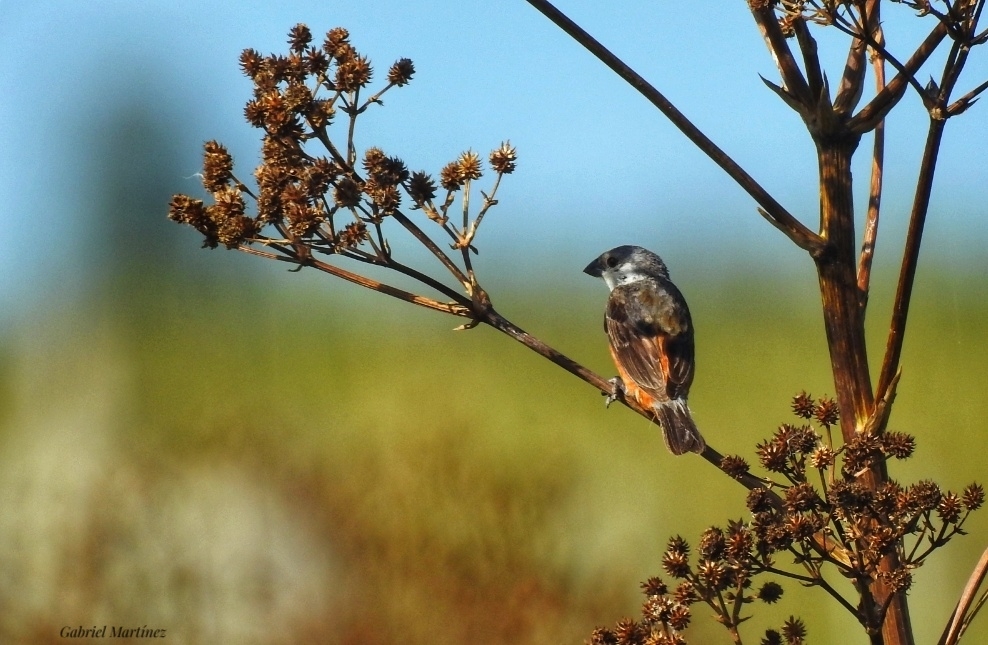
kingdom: Animalia
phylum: Chordata
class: Aves
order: Passeriformes
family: Thraupidae
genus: Sporophila
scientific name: Sporophila palustris
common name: Marsh seedeater
